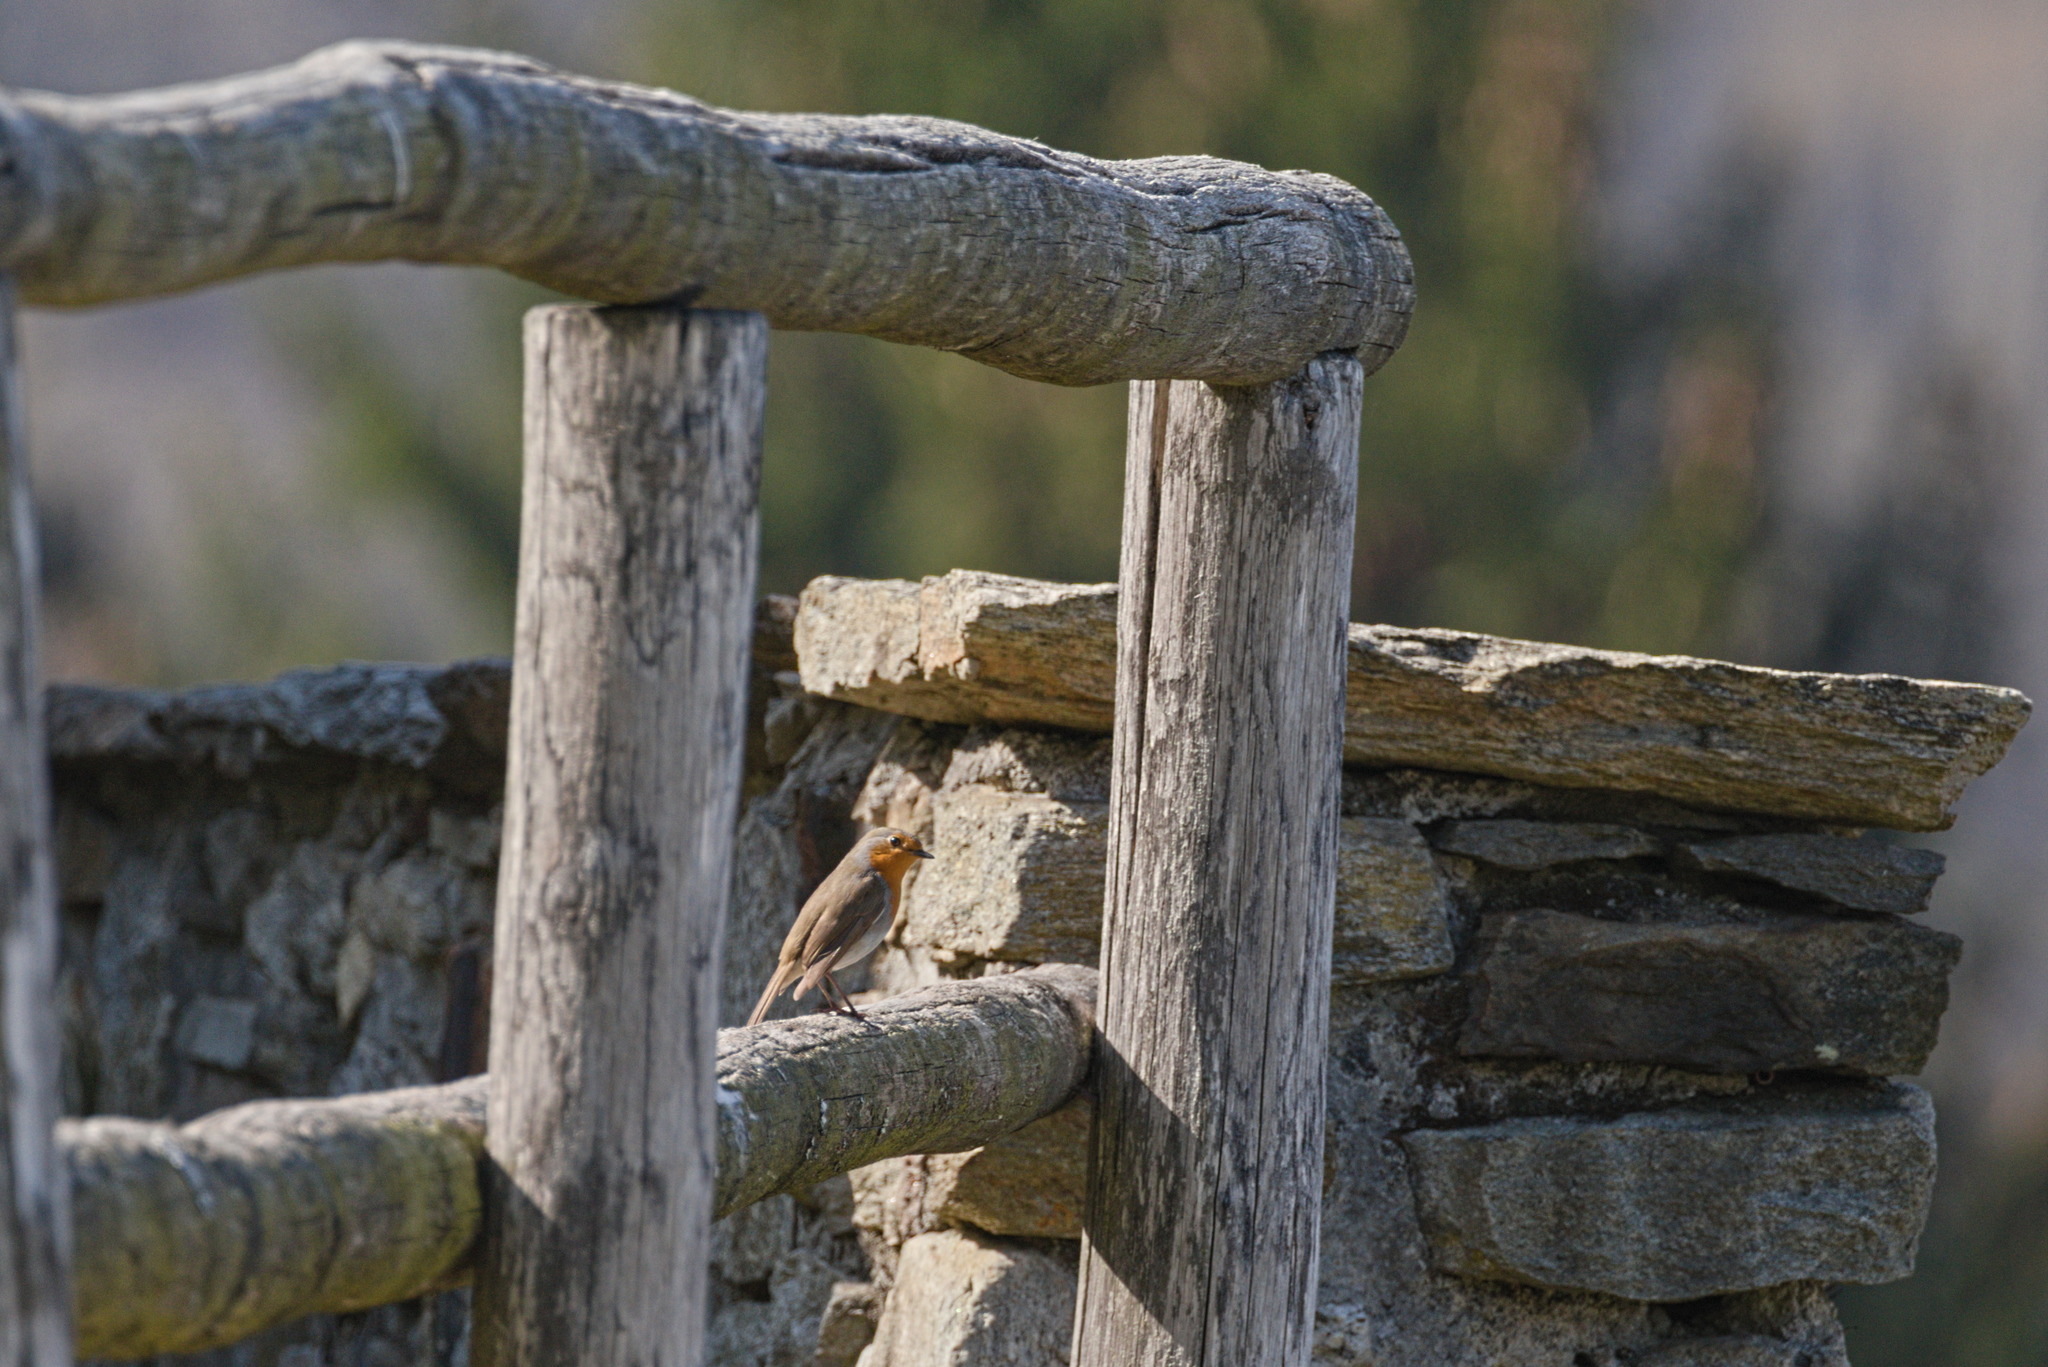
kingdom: Animalia
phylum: Chordata
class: Aves
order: Passeriformes
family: Muscicapidae
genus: Erithacus
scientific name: Erithacus rubecula
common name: European robin
